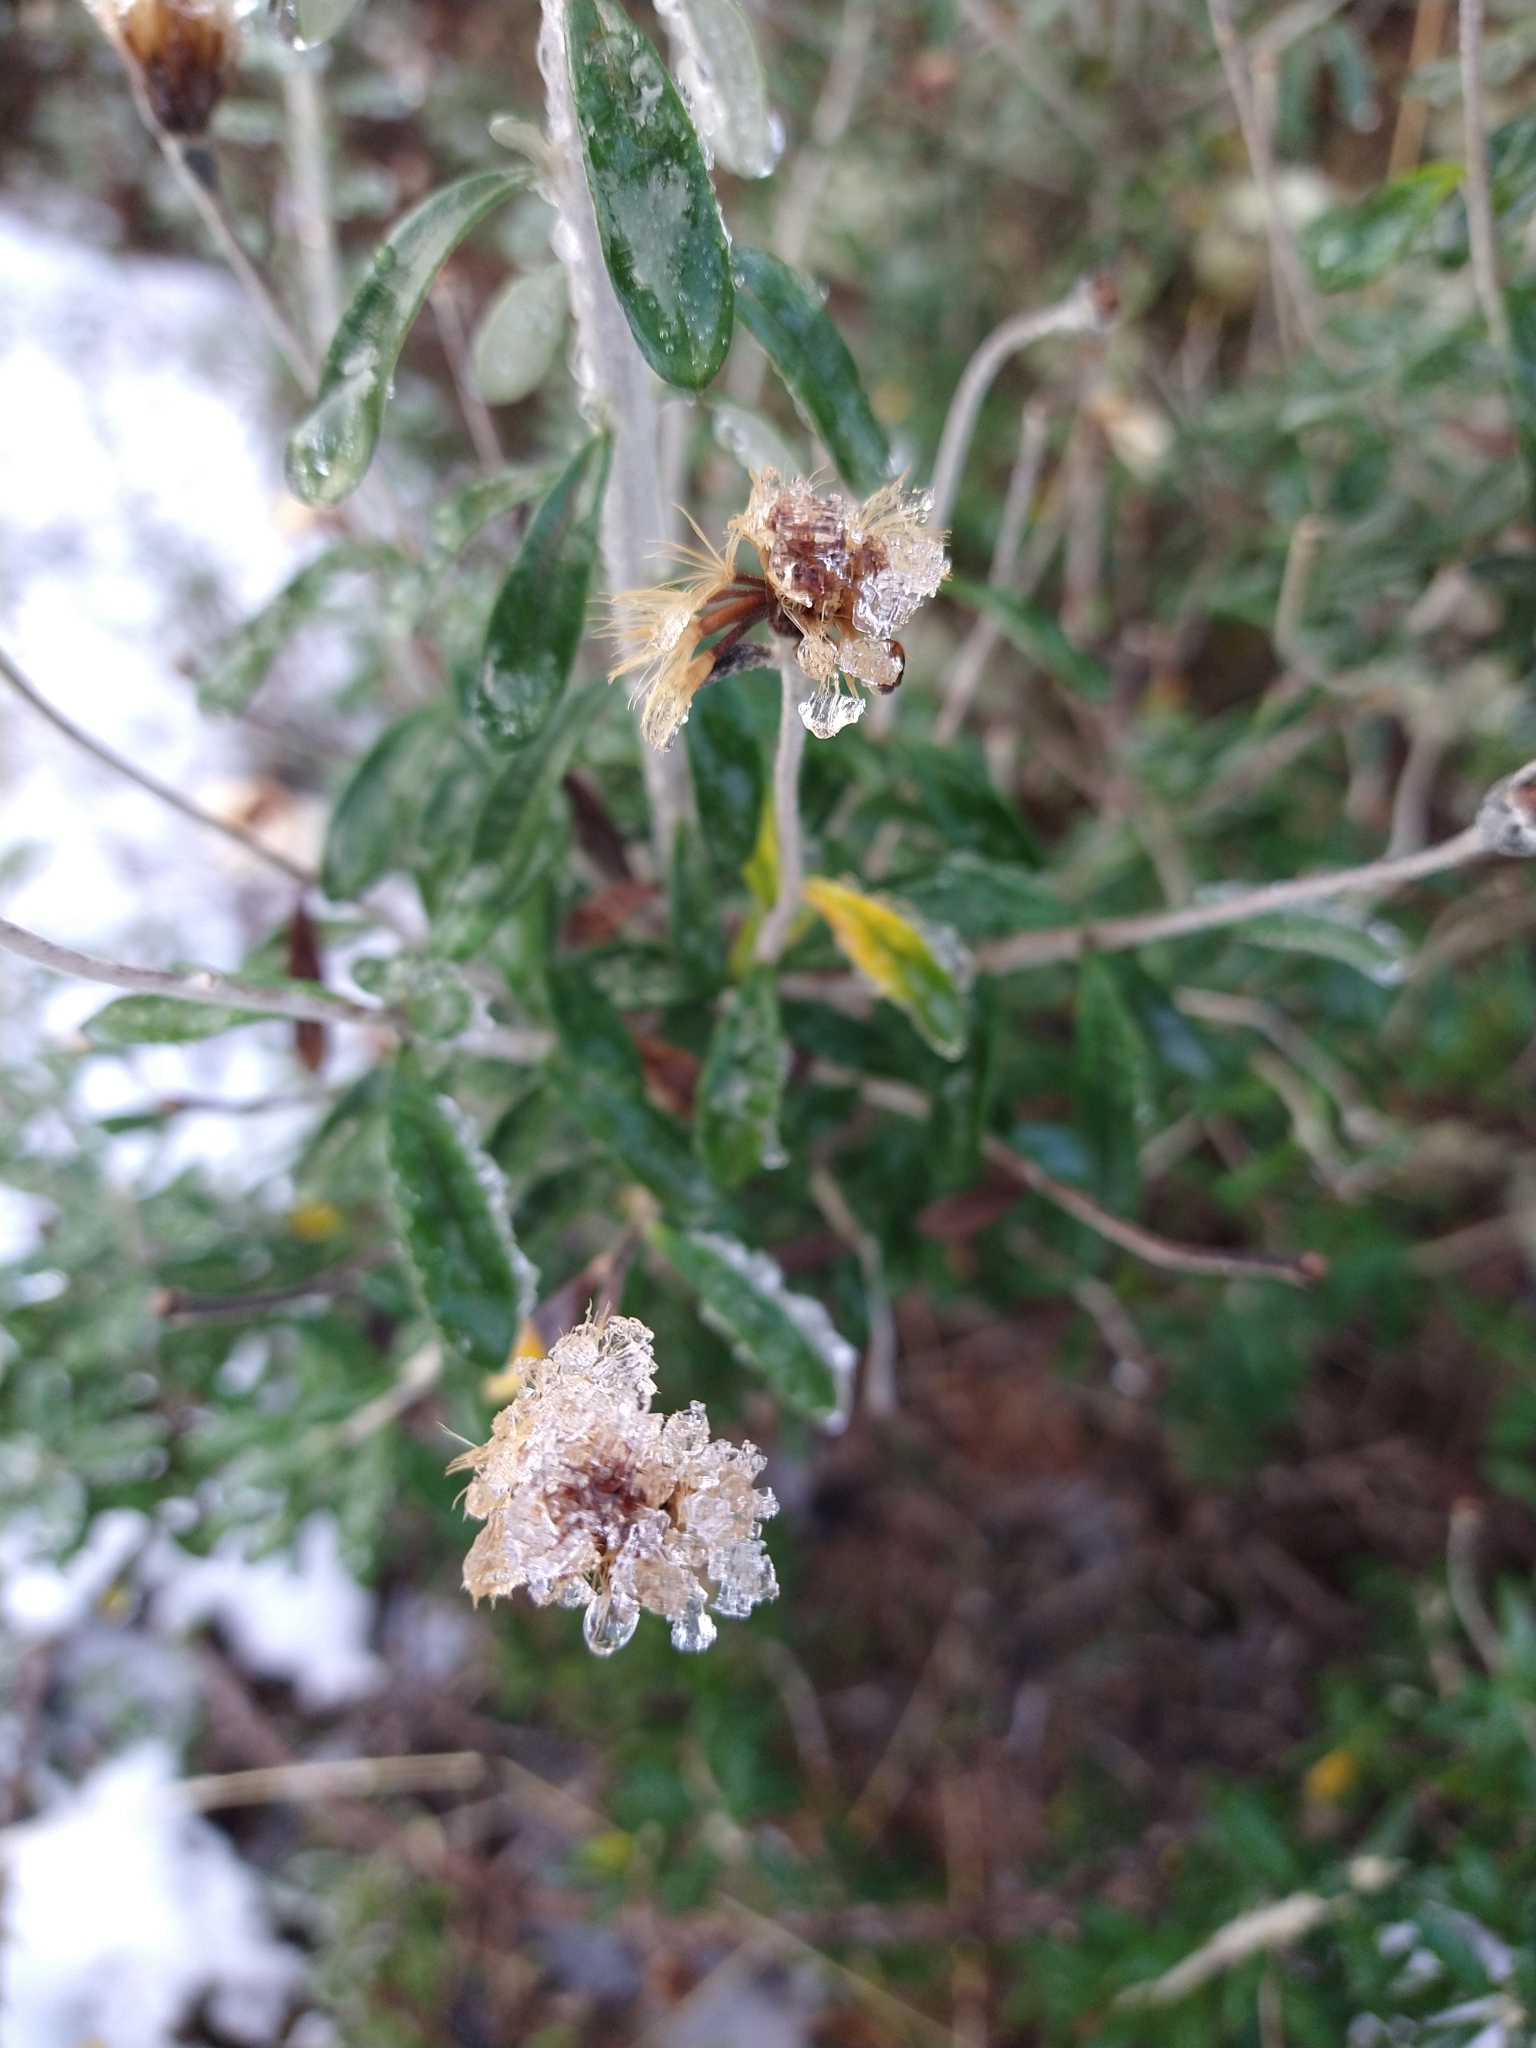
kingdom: Plantae
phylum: Tracheophyta
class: Magnoliopsida
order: Asterales
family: Asteraceae
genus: Chiliotrichum
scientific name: Chiliotrichum diffusum
